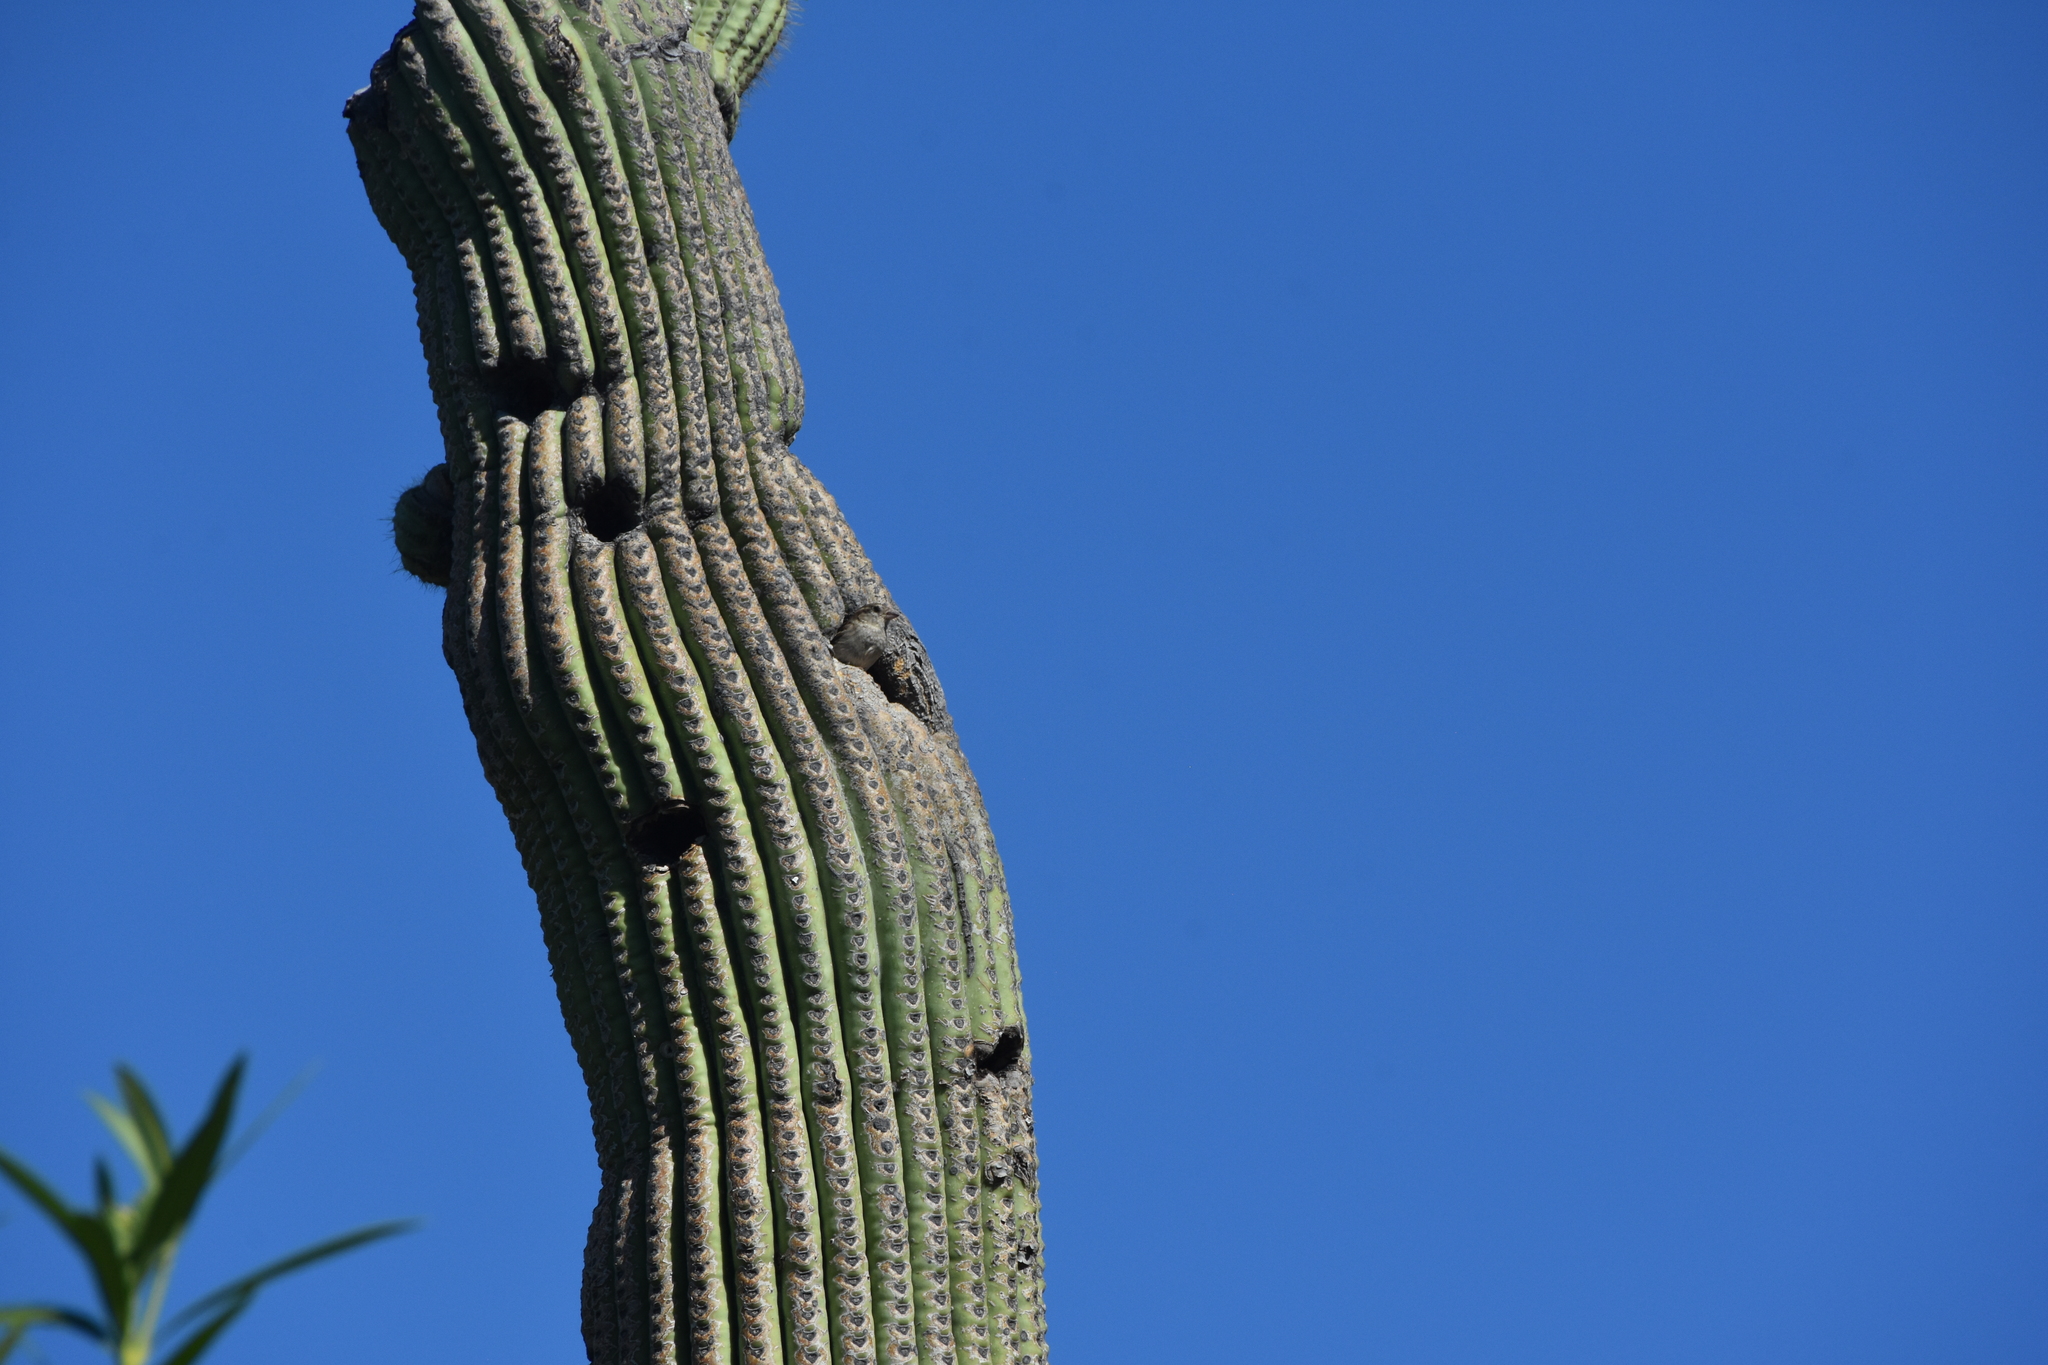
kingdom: Animalia
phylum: Chordata
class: Aves
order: Passeriformes
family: Passeridae
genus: Passer
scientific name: Passer domesticus
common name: House sparrow
